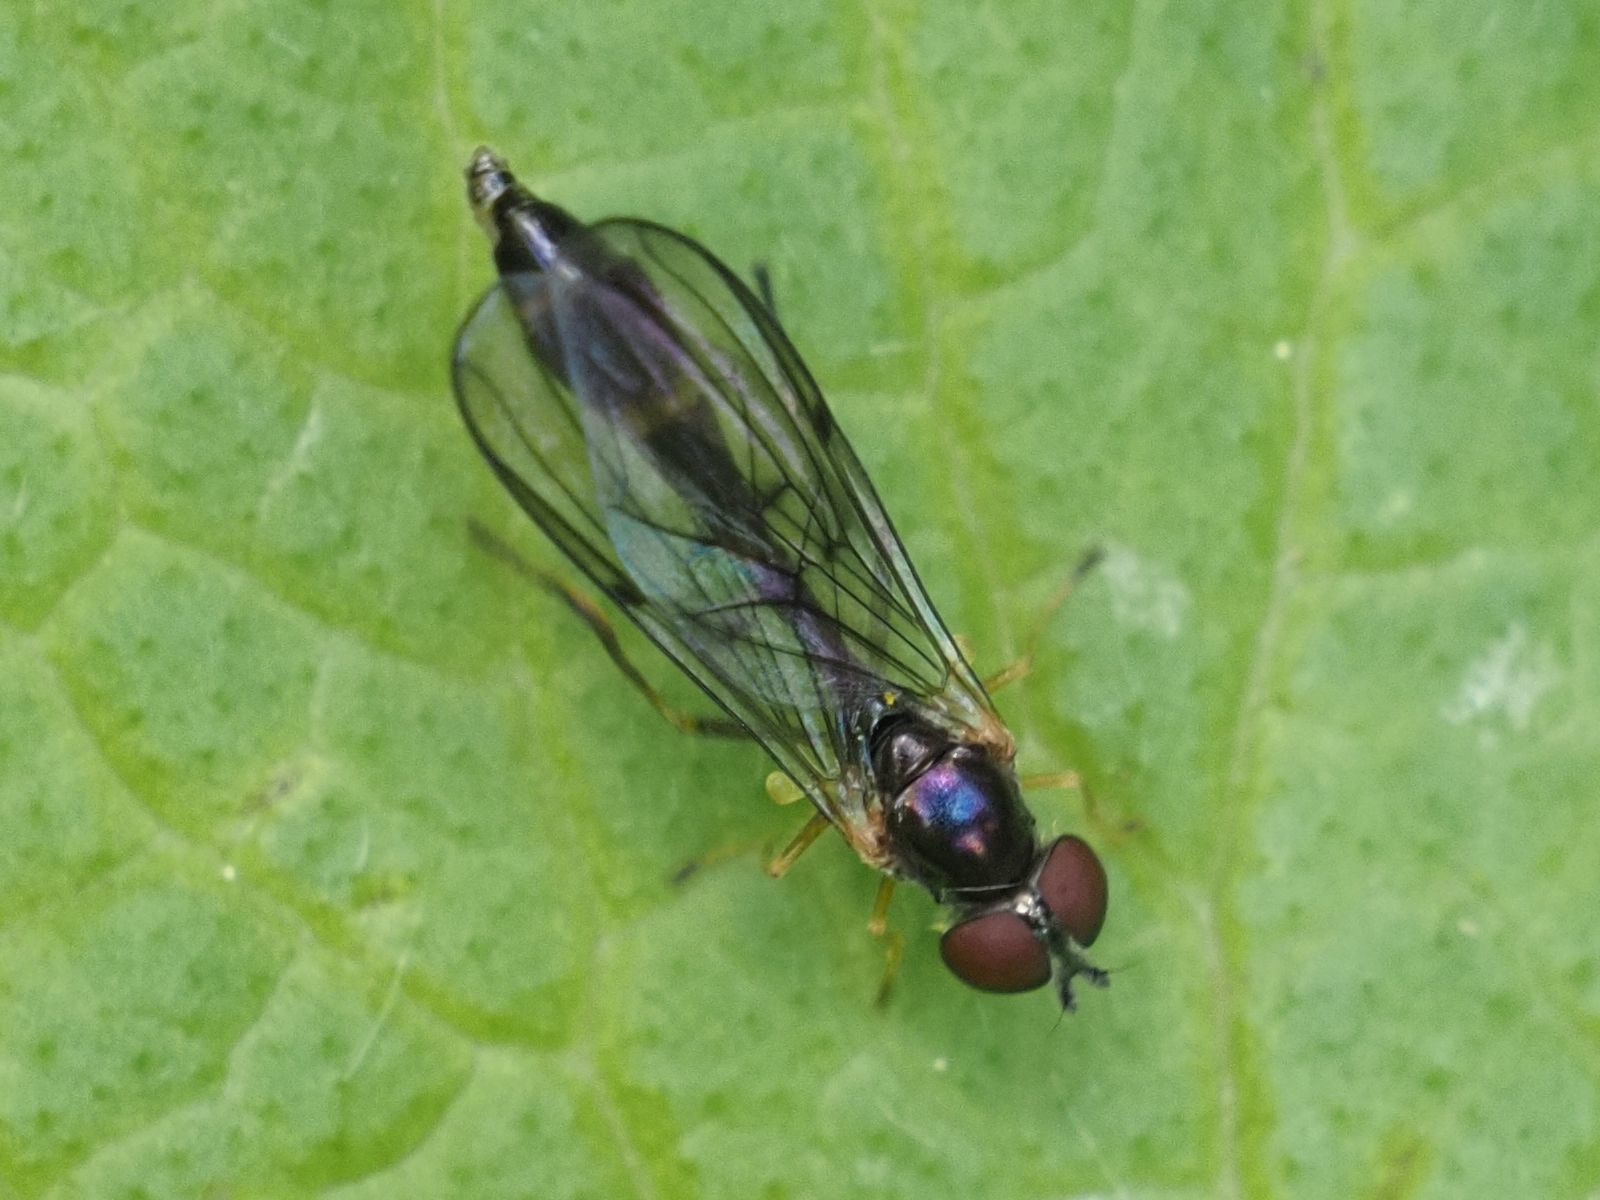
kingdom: Animalia
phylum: Arthropoda
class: Insecta
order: Diptera
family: Syrphidae
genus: Baccha
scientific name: Baccha elongata
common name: Common dainty
